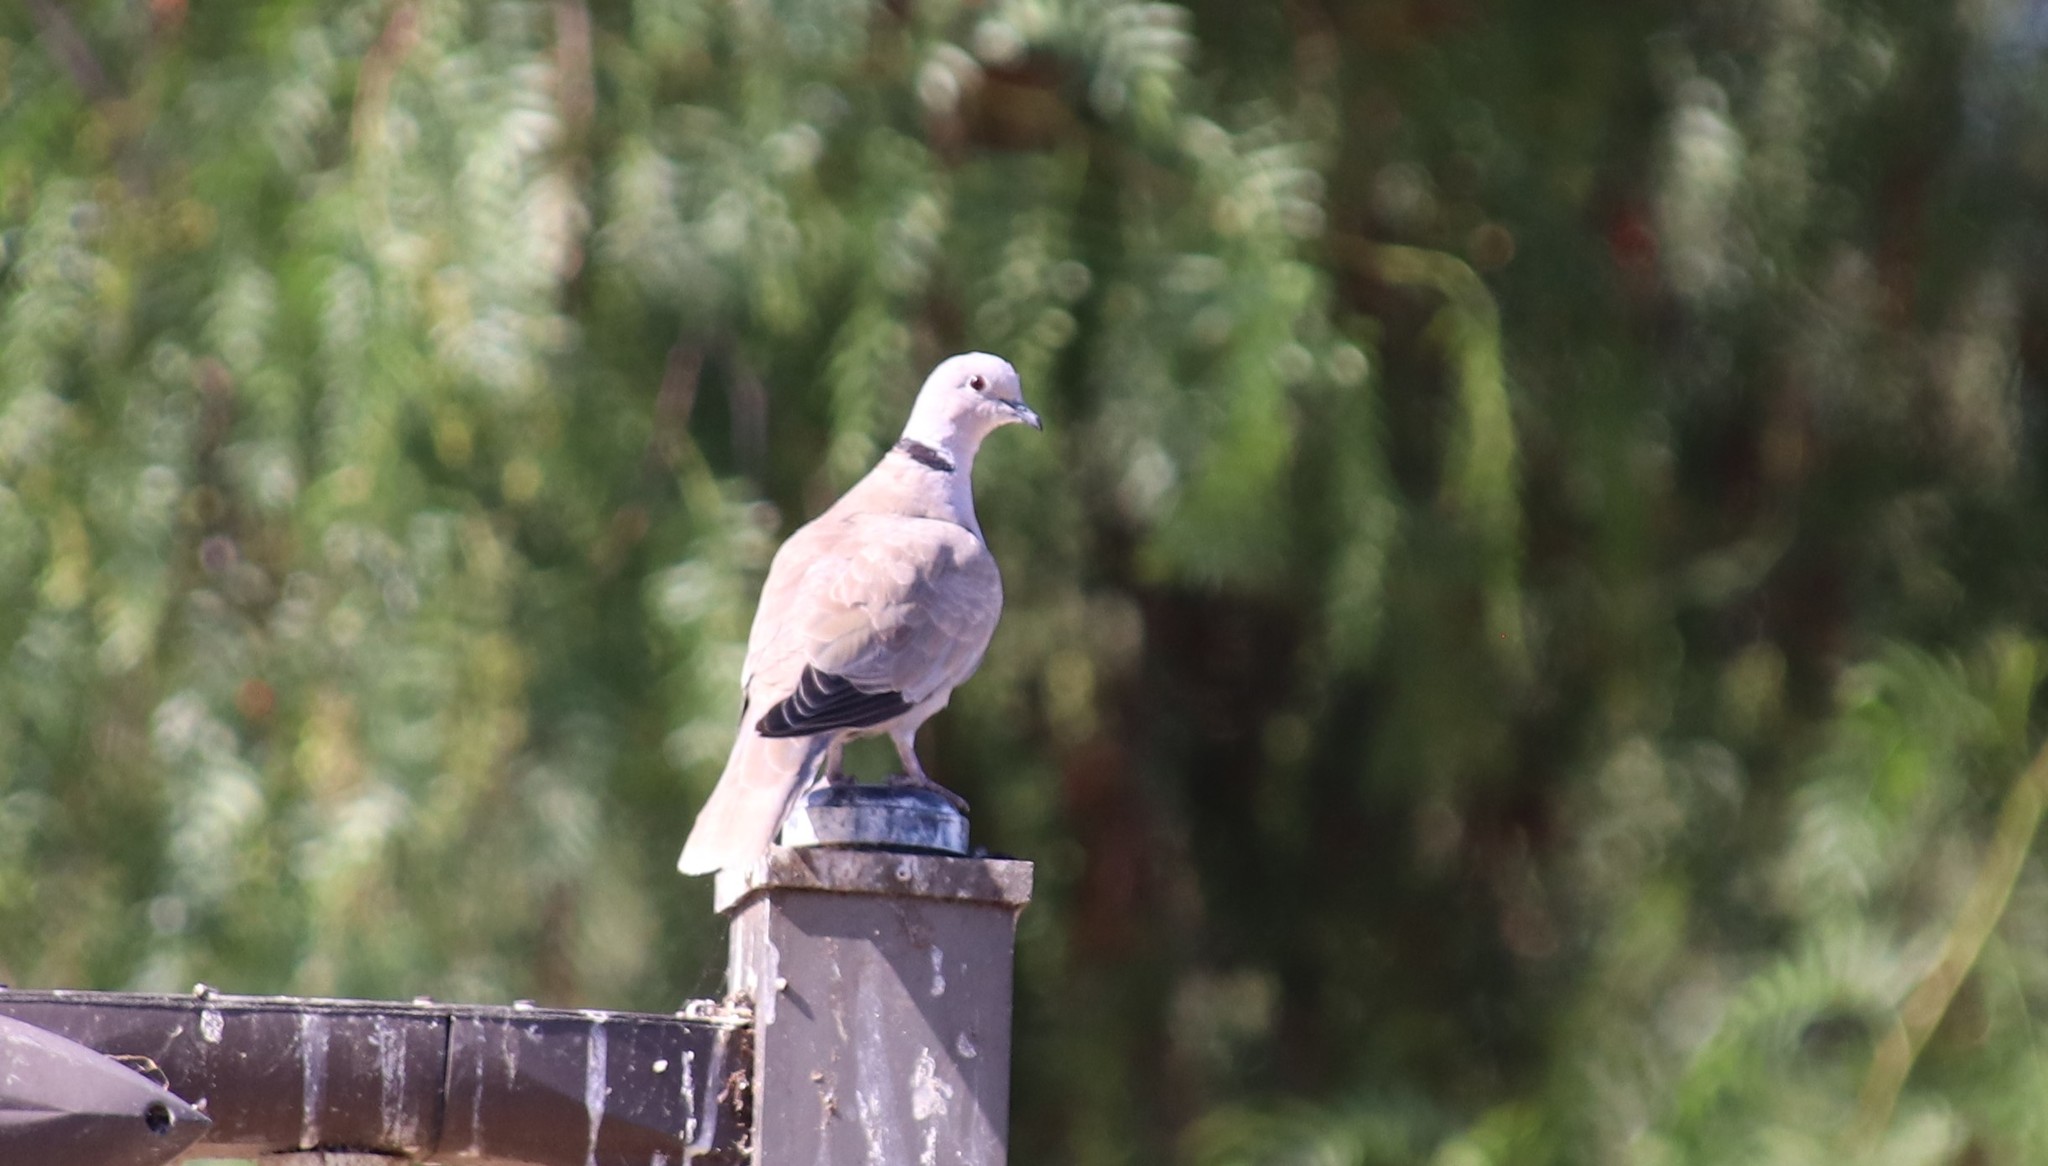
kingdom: Animalia
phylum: Chordata
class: Aves
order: Columbiformes
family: Columbidae
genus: Streptopelia
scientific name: Streptopelia decaocto
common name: Eurasian collared dove
